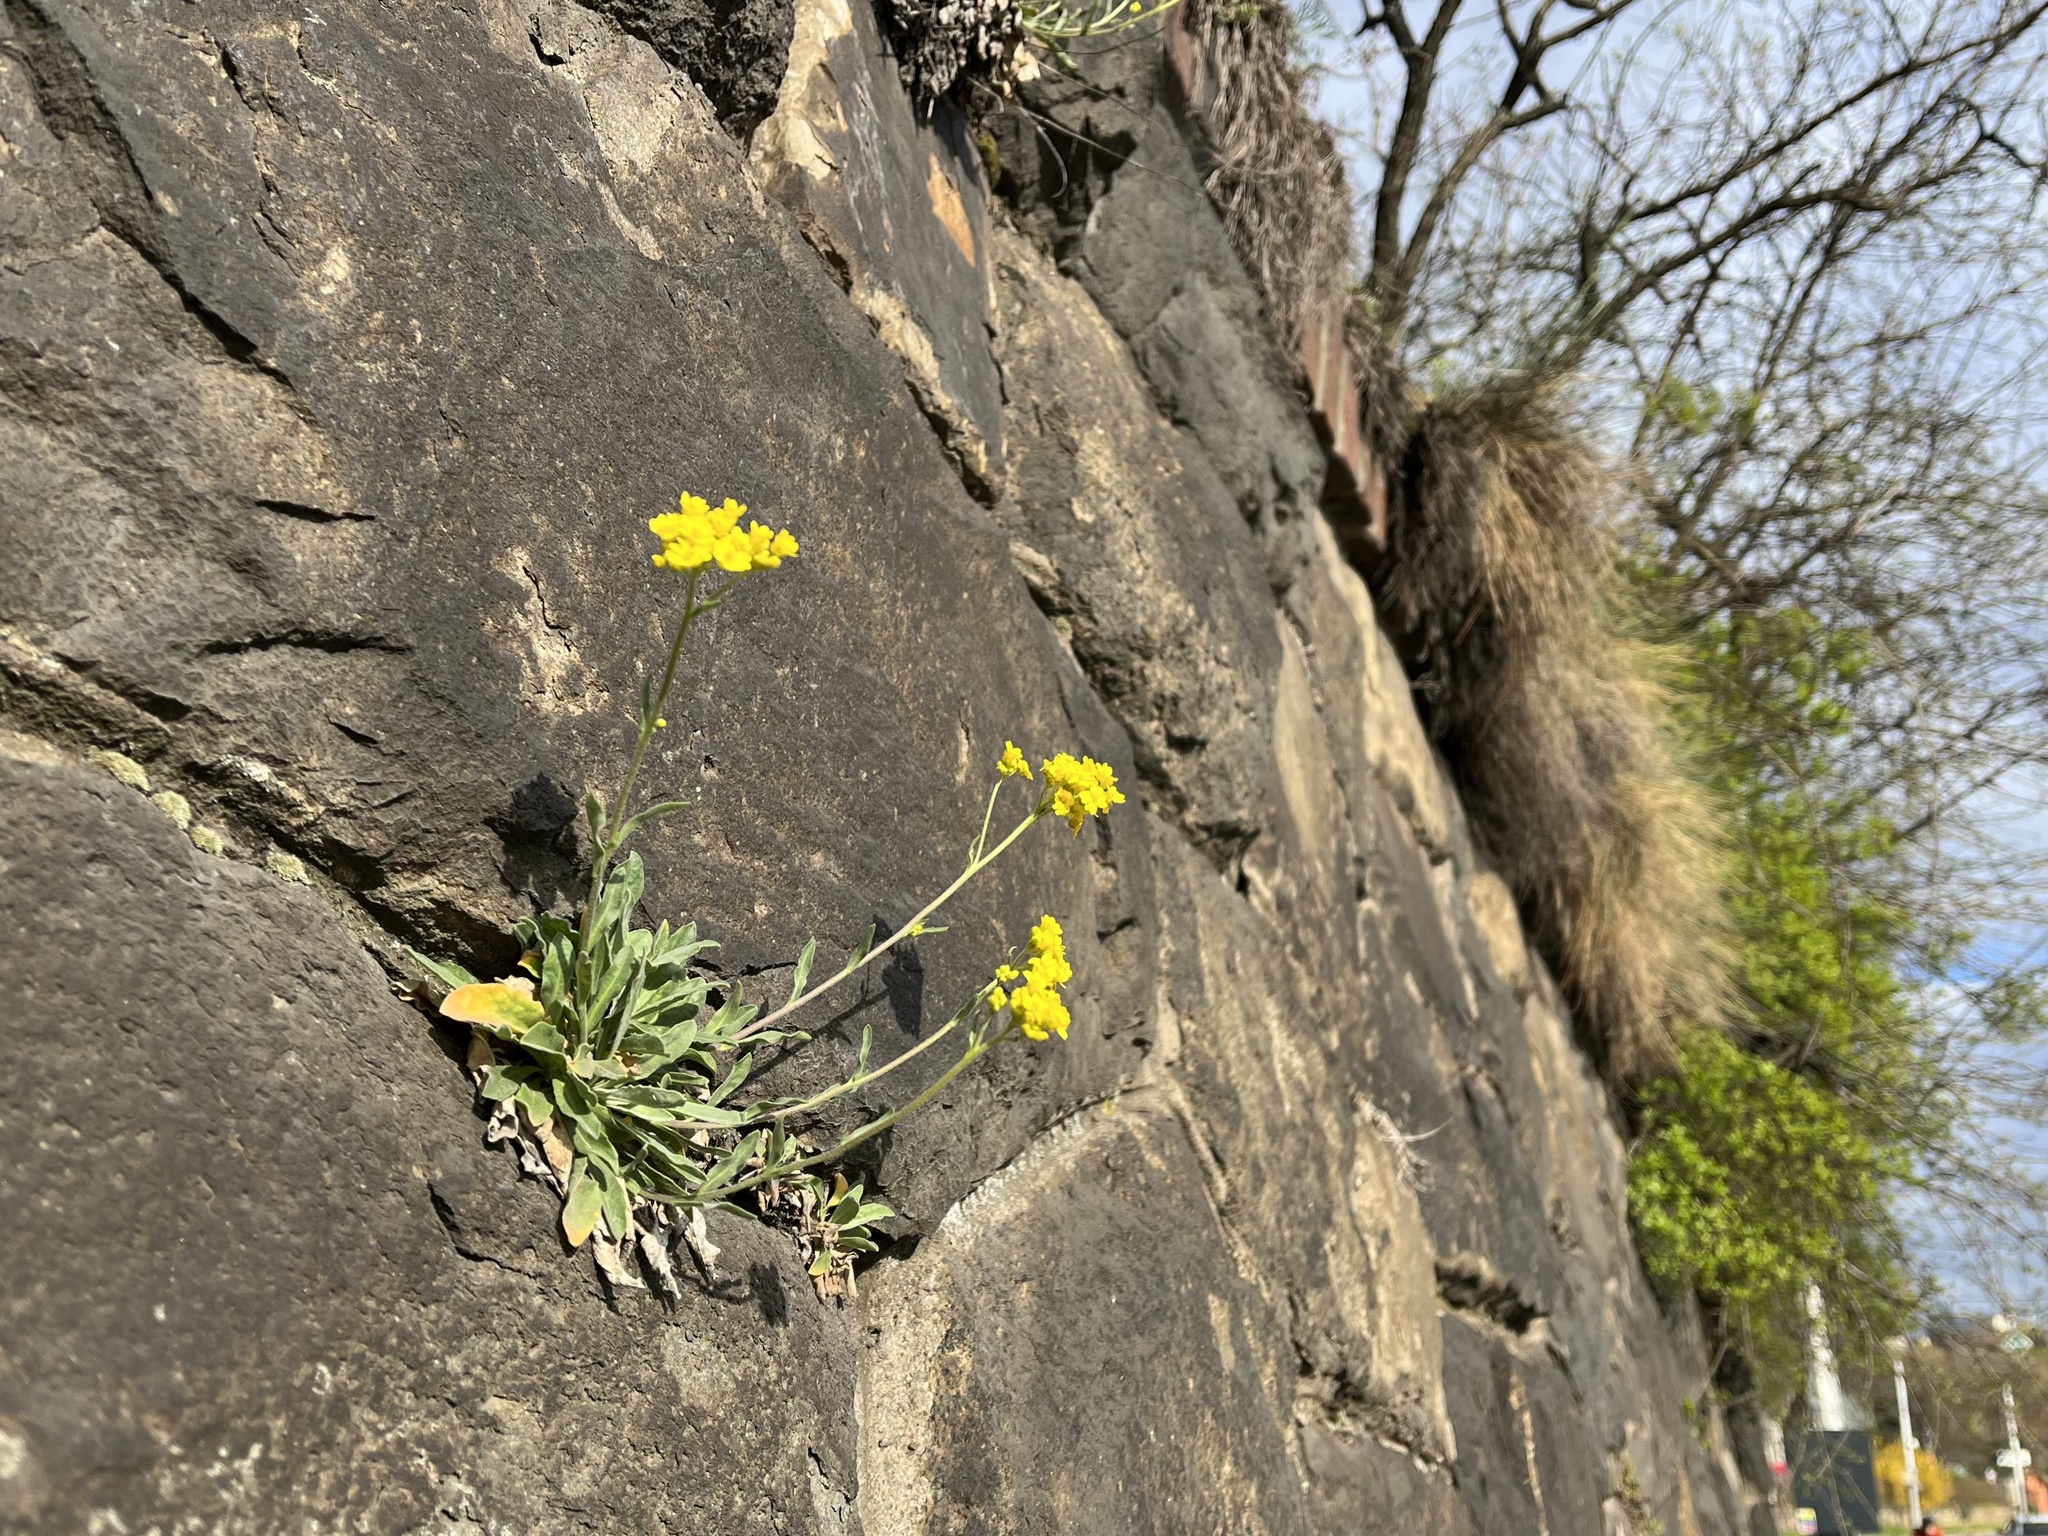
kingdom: Plantae
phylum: Tracheophyta
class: Magnoliopsida
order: Brassicales
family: Brassicaceae
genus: Aurinia
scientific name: Aurinia saxatilis
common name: Golden-tuft alyssum
